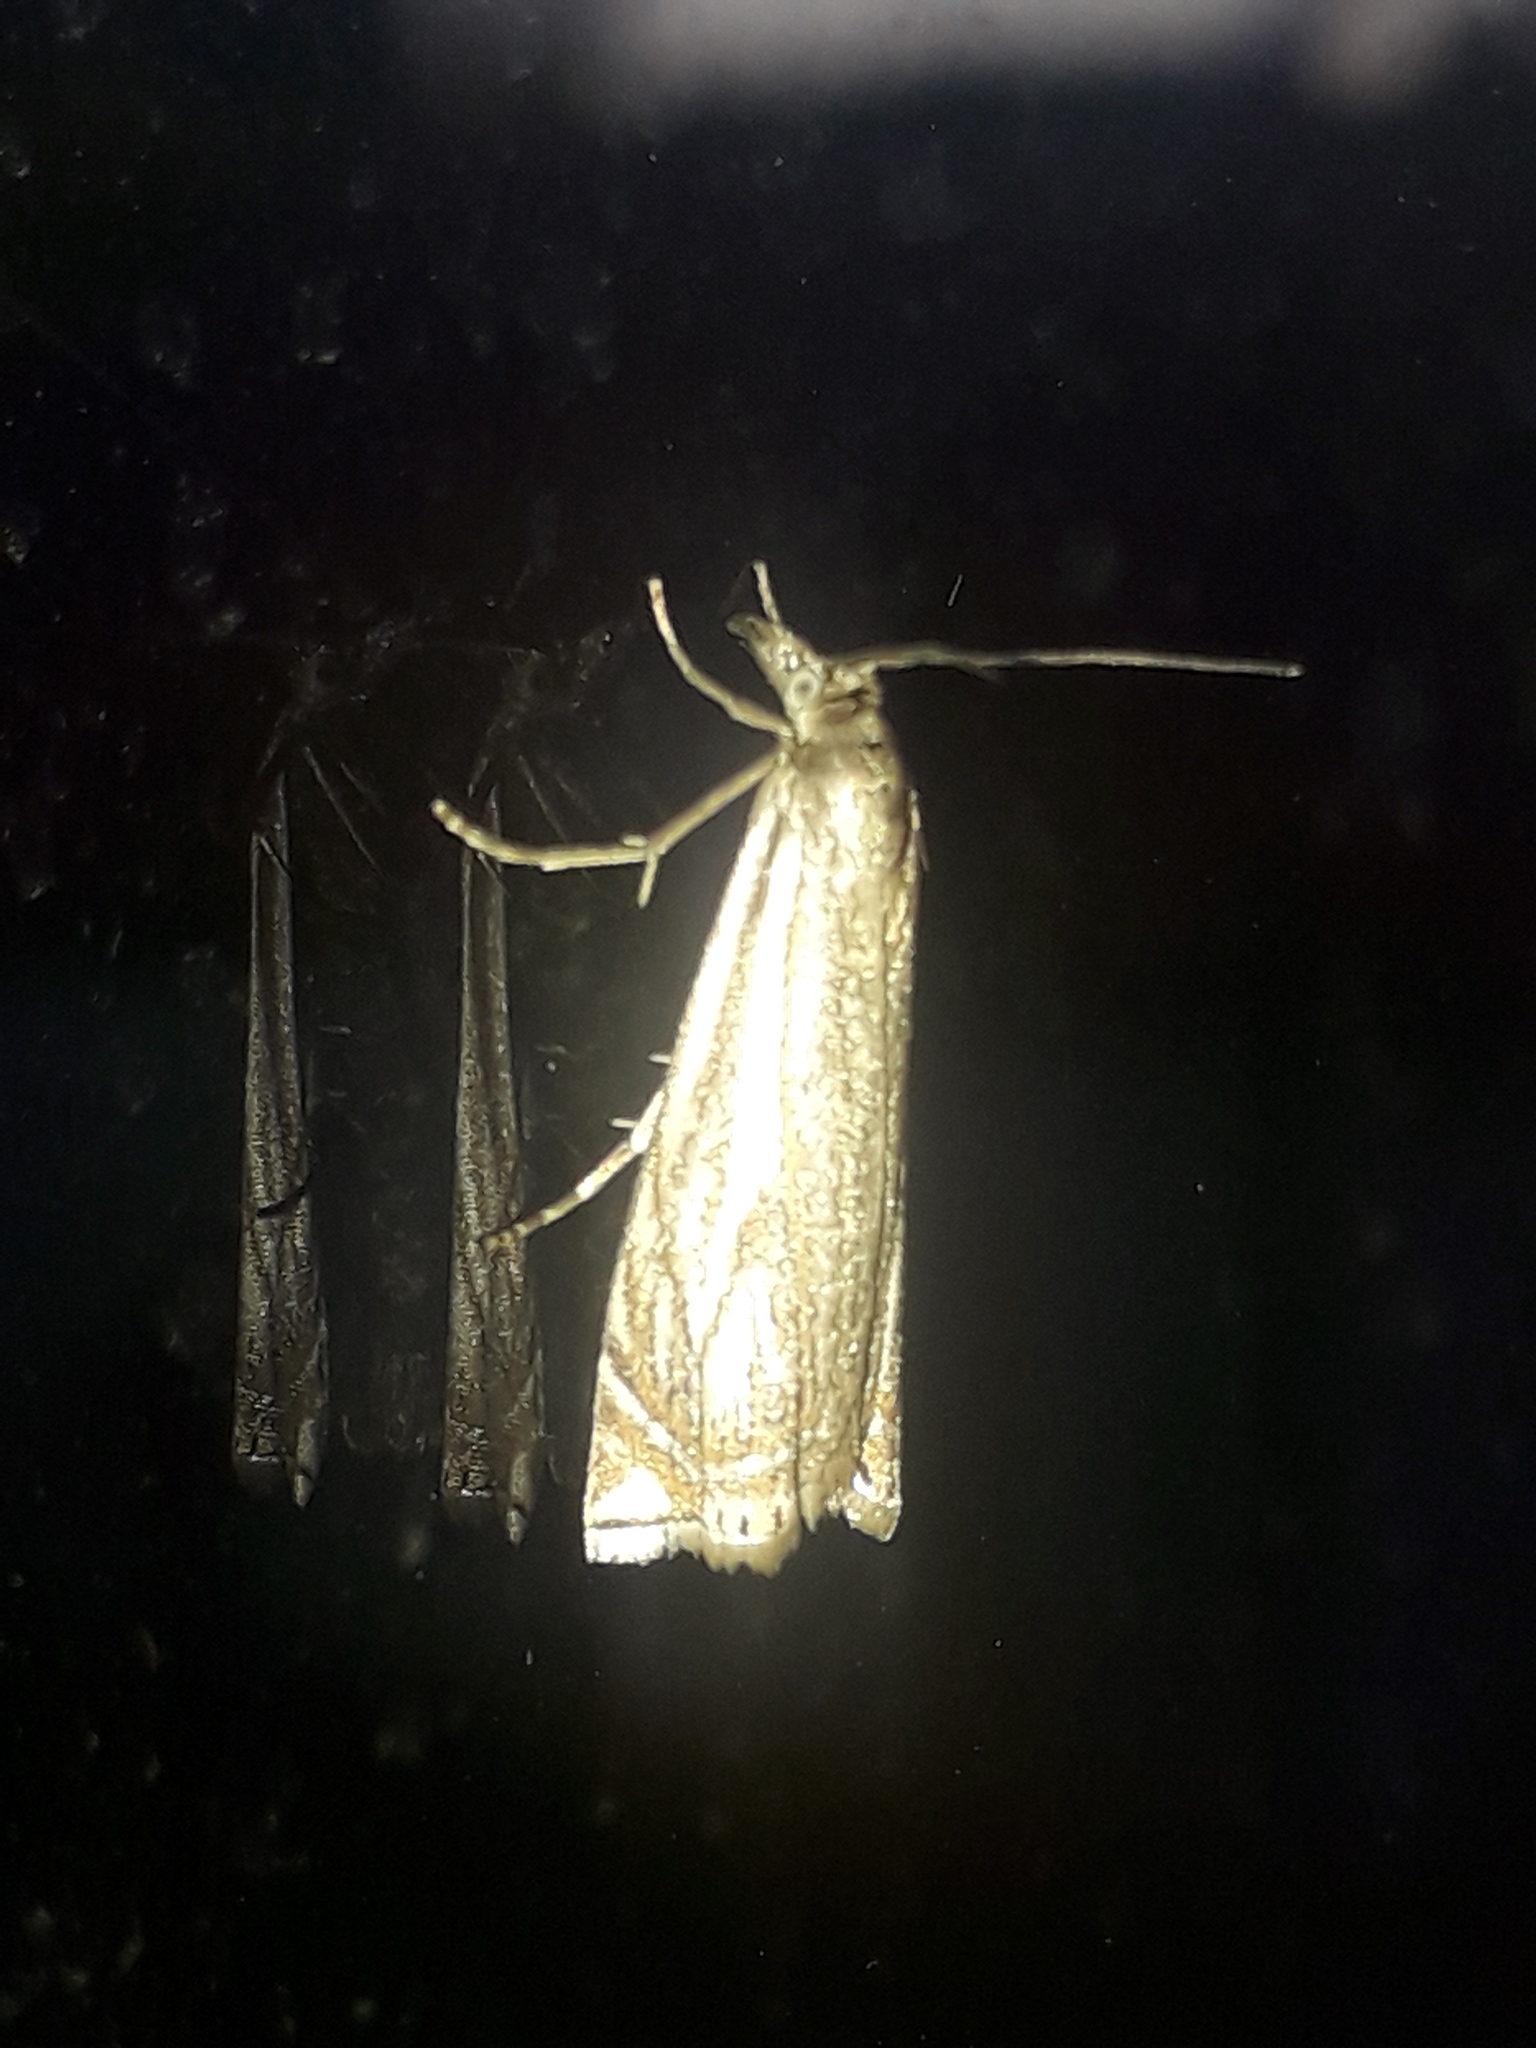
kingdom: Animalia
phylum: Arthropoda
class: Insecta
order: Lepidoptera
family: Crambidae
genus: Chrysoteuchia
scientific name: Chrysoteuchia culmella
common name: Garden grass-veneer
